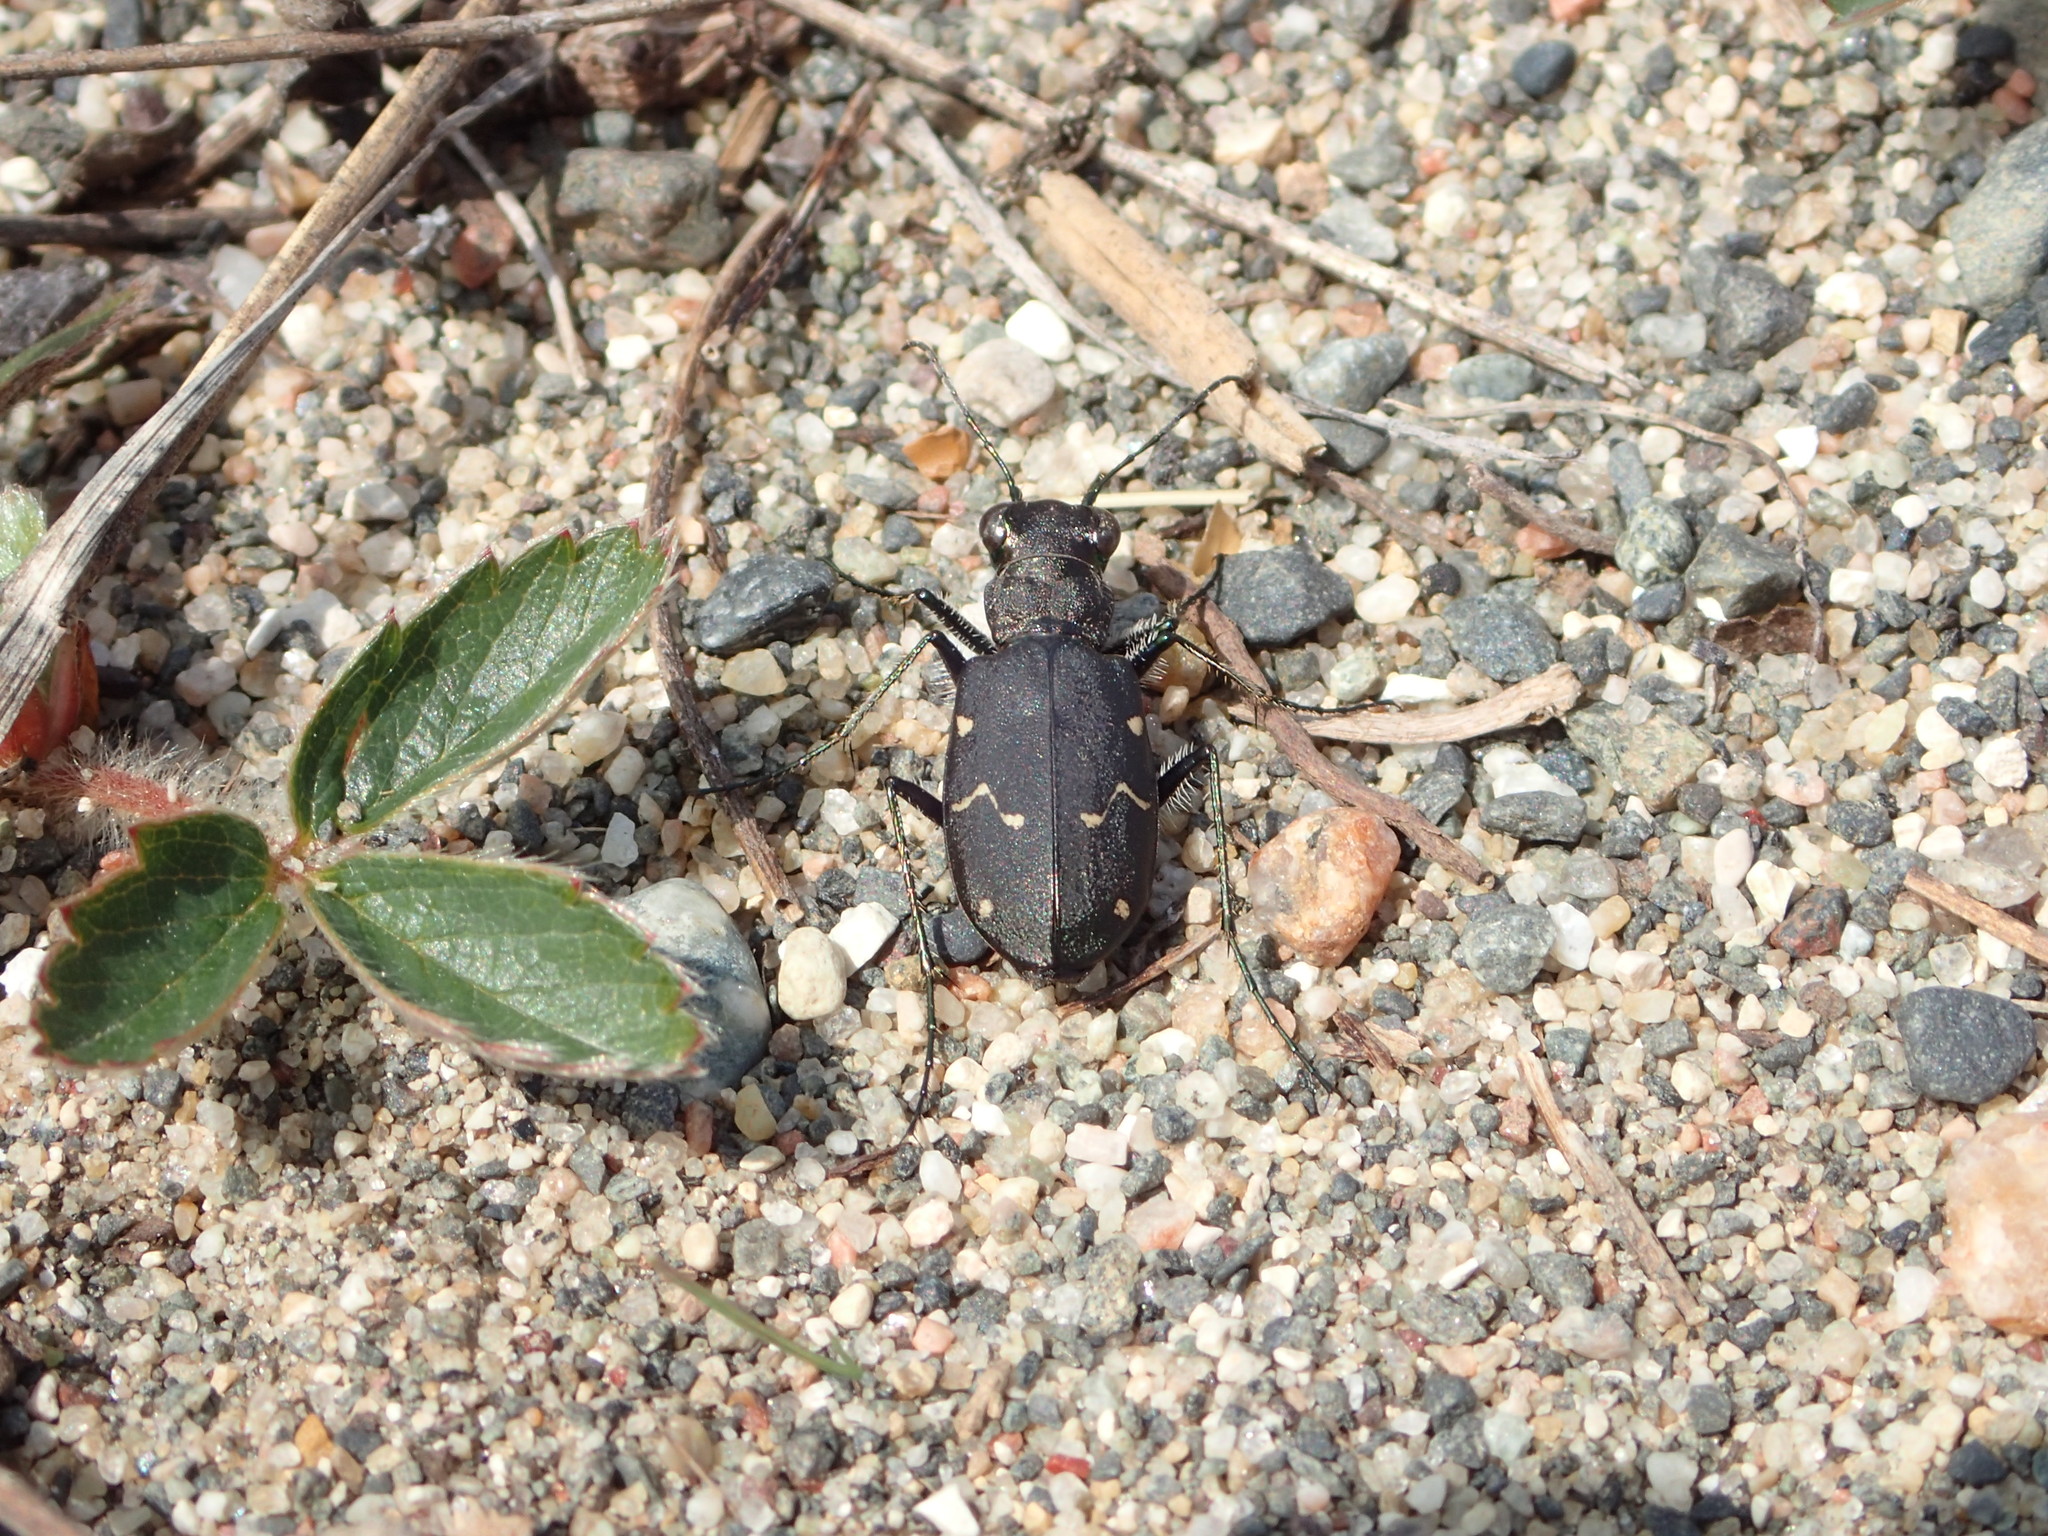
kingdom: Animalia
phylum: Arthropoda
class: Insecta
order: Coleoptera
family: Carabidae
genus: Cicindela
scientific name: Cicindela longilabris
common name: Boreal long-lipped tiger beetle
